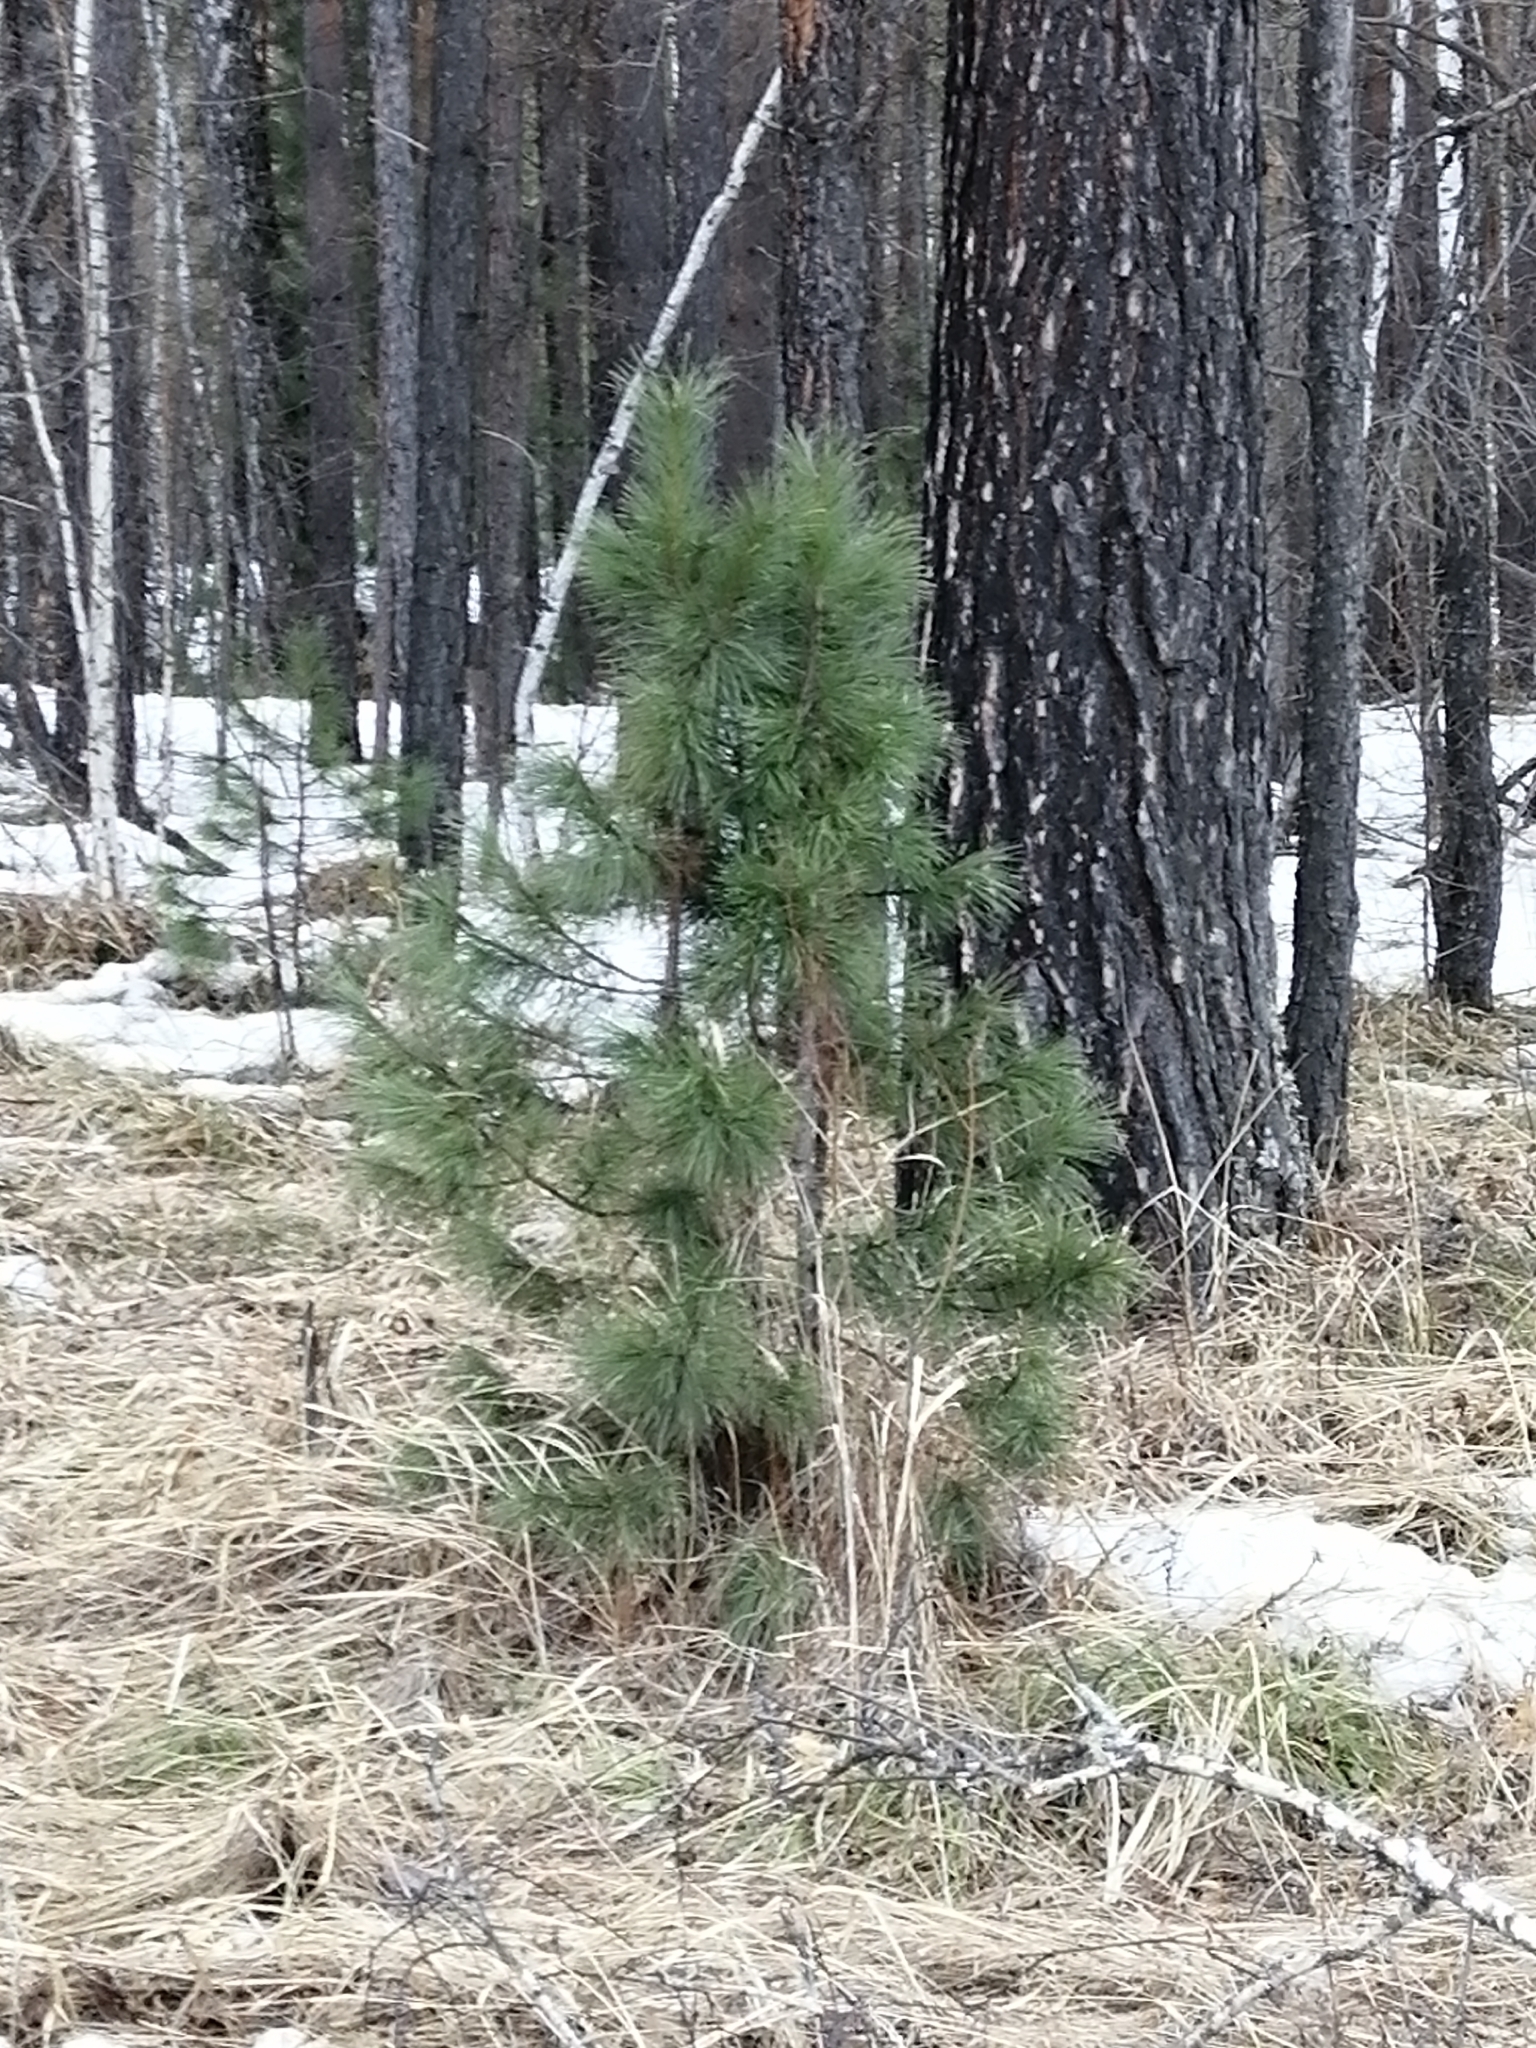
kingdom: Plantae
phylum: Tracheophyta
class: Pinopsida
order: Pinales
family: Pinaceae
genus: Pinus
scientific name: Pinus sibirica
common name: Siberian pine
